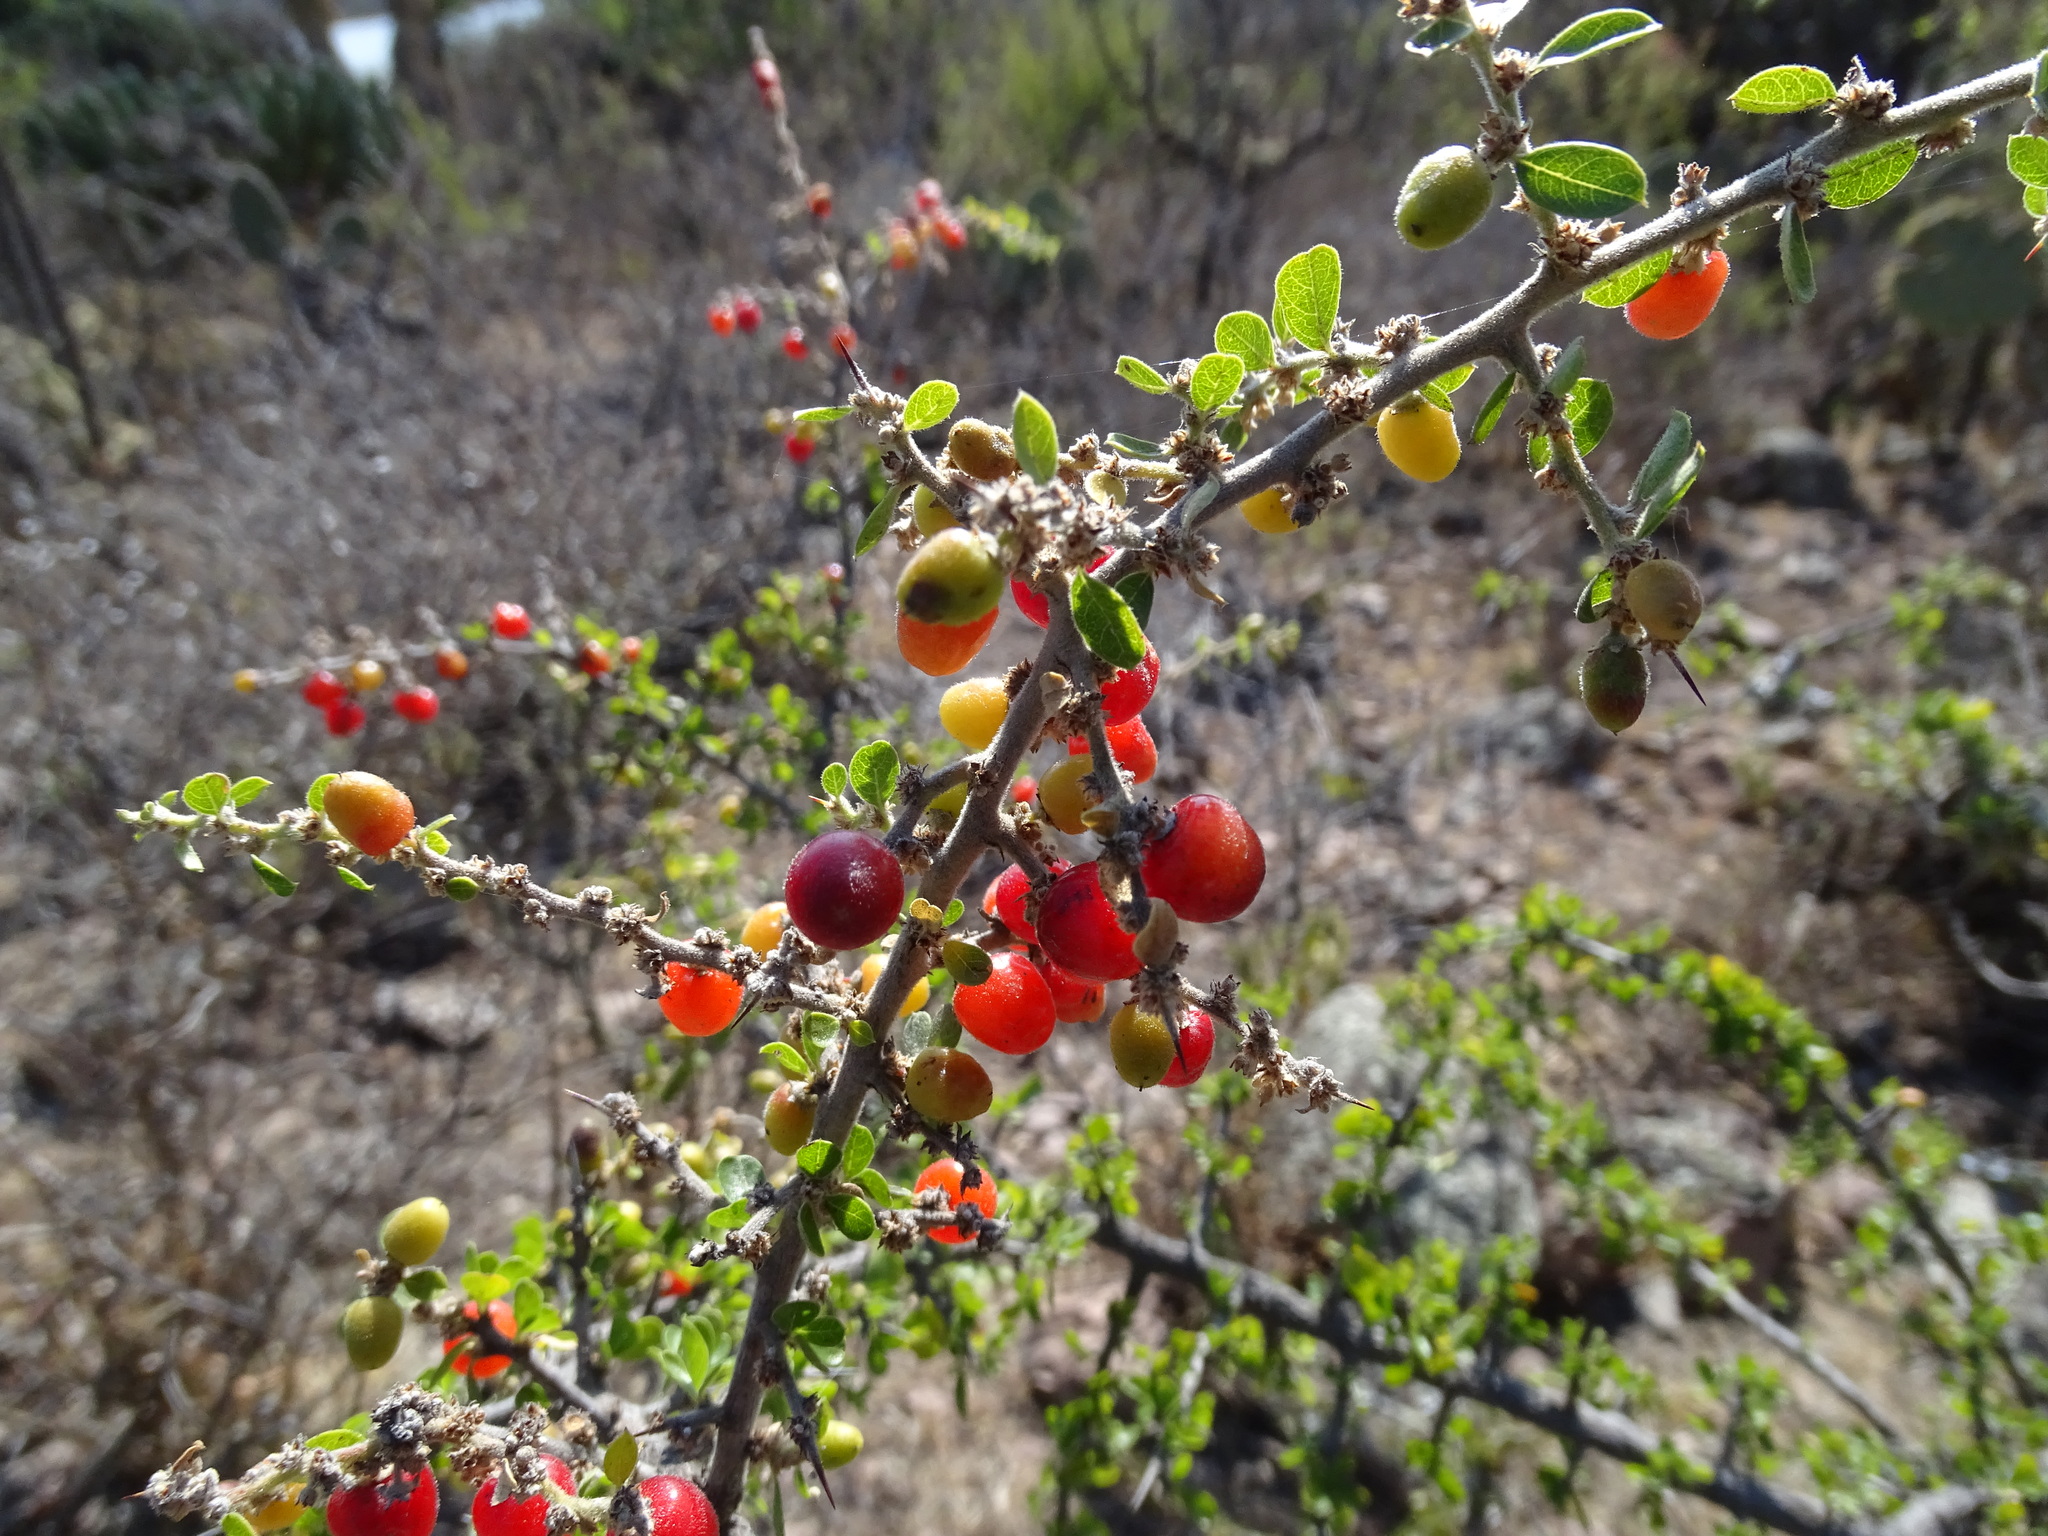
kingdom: Plantae
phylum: Tracheophyta
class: Magnoliopsida
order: Rosales
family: Rhamnaceae
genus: Condalia
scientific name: Condalia velutina
